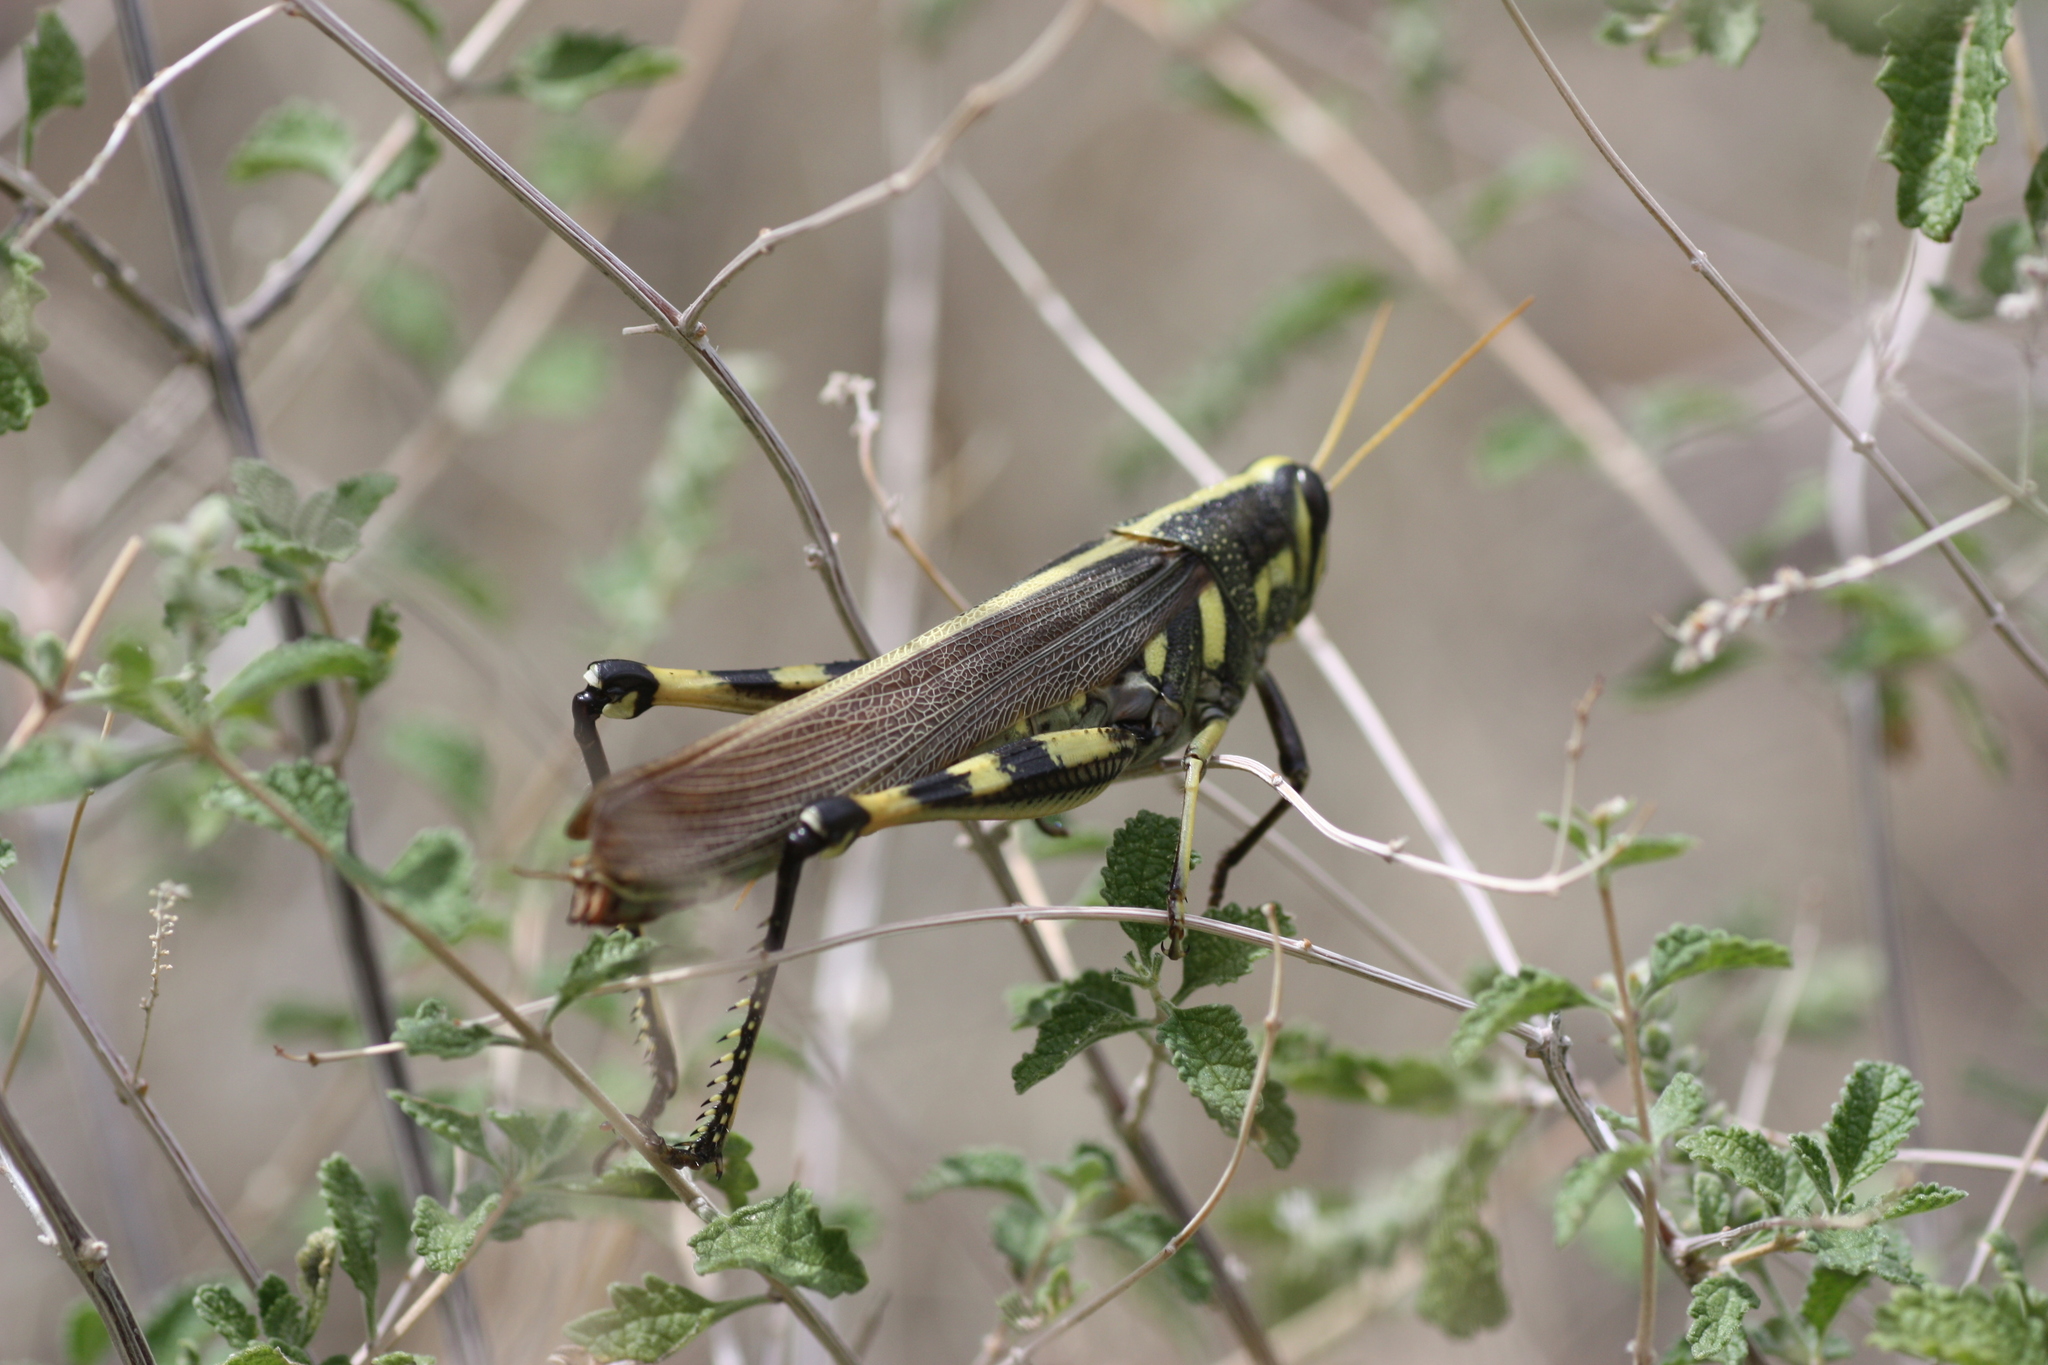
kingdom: Animalia
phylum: Arthropoda
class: Insecta
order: Orthoptera
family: Acrididae
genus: Schistocerca
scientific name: Schistocerca albolineata
